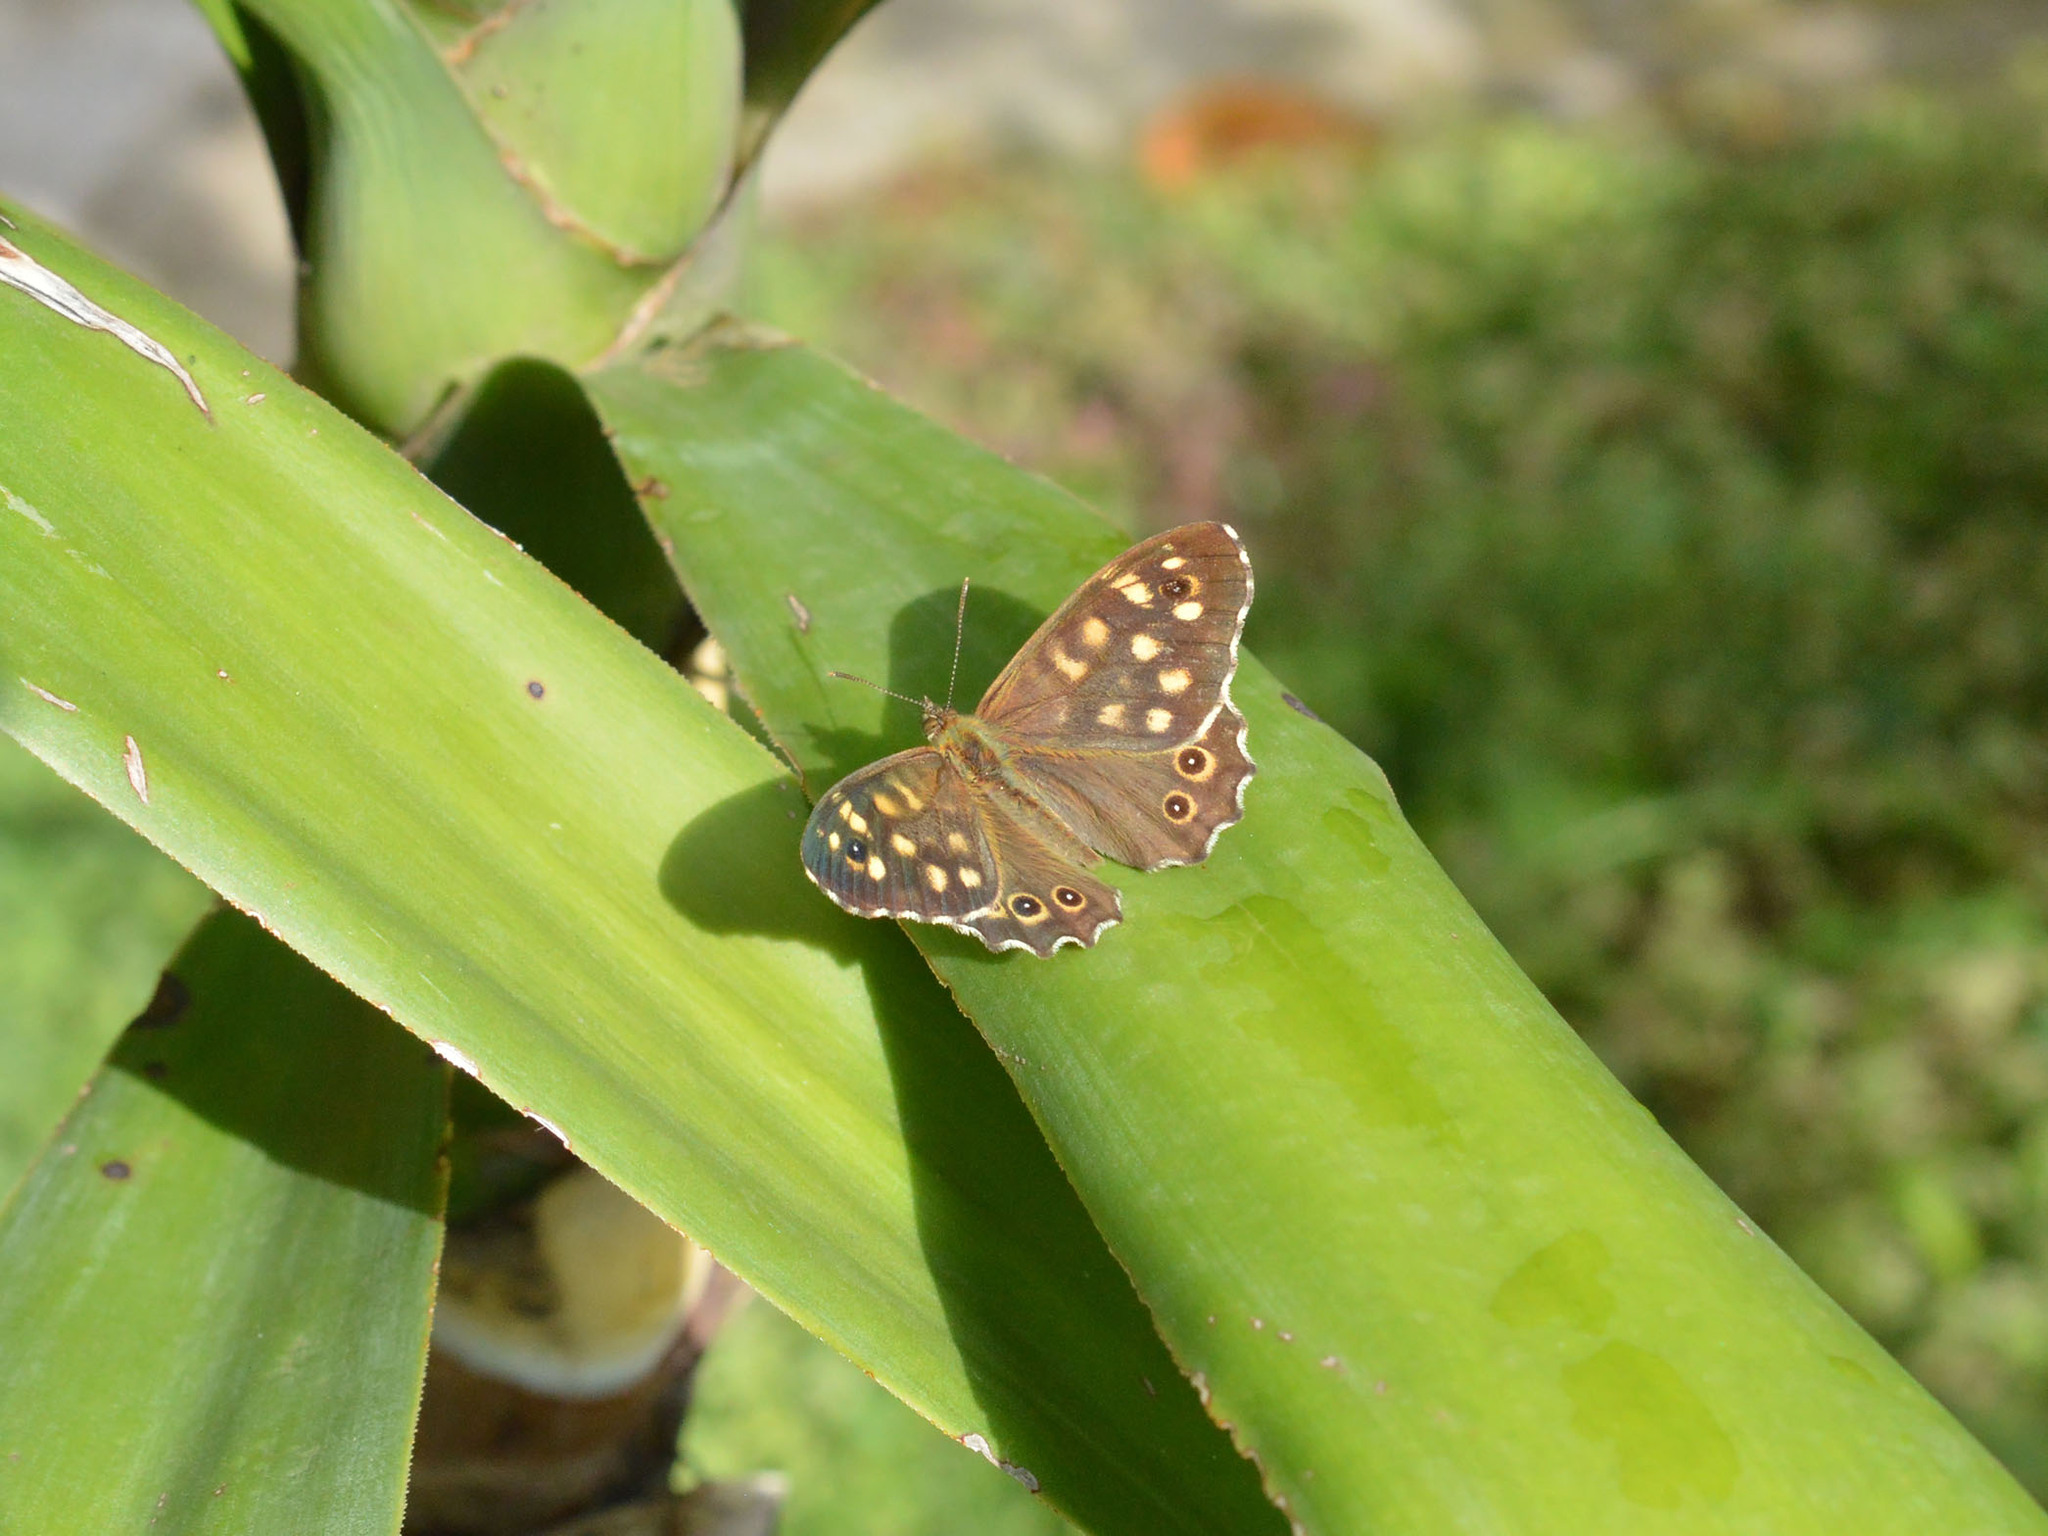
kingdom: Animalia
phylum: Arthropoda
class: Insecta
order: Lepidoptera
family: Nymphalidae
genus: Pararge
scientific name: Pararge aegeria
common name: Speckled wood
